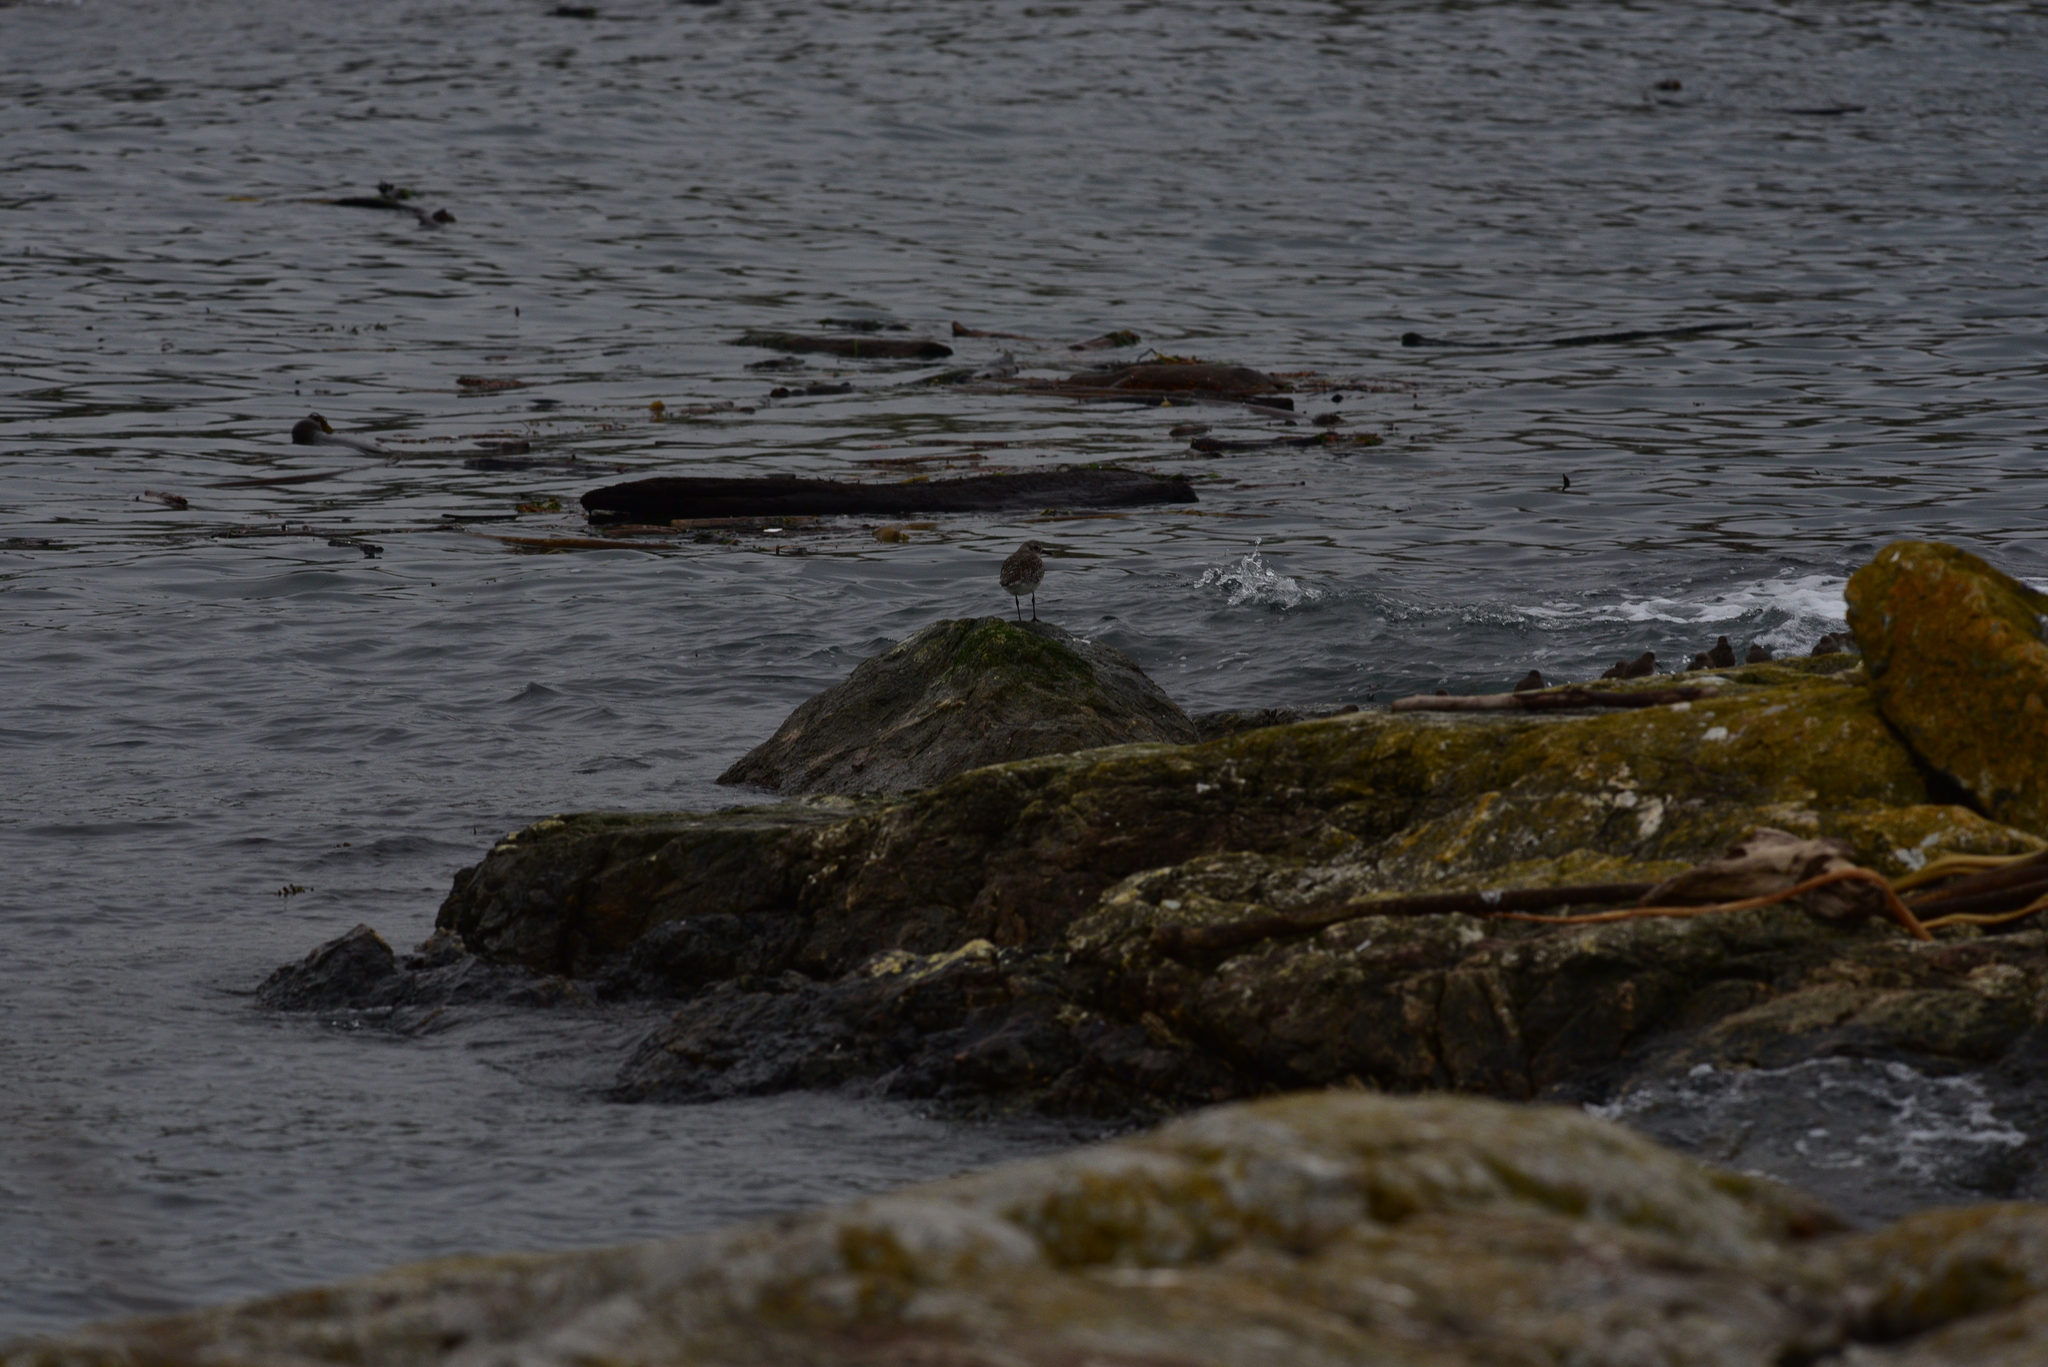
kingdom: Animalia
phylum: Chordata
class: Aves
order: Charadriiformes
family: Charadriidae
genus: Pluvialis
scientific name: Pluvialis squatarola
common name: Grey plover
